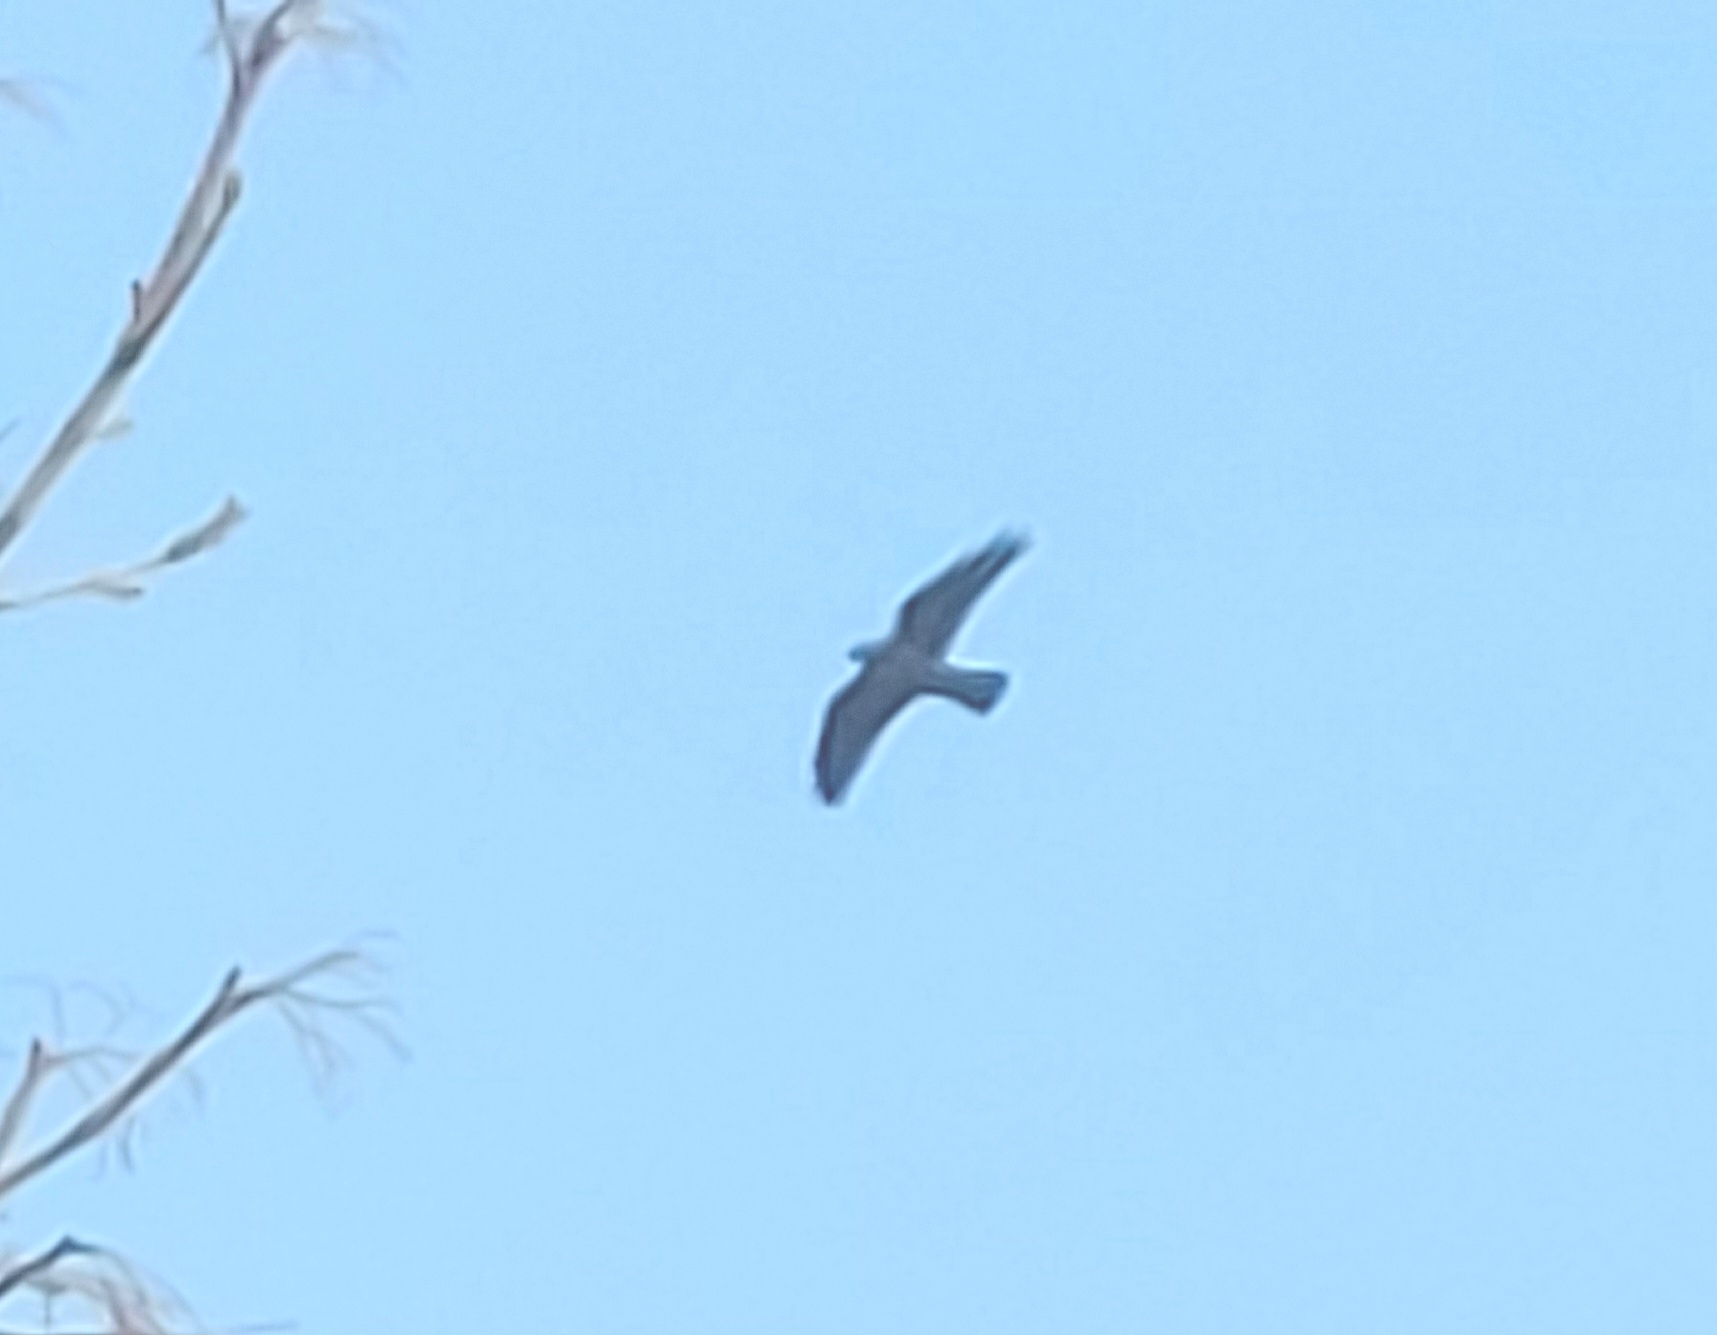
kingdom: Animalia
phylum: Chordata
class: Aves
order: Passeriformes
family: Corvidae
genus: Coloeus
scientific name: Coloeus monedula
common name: Western jackdaw
